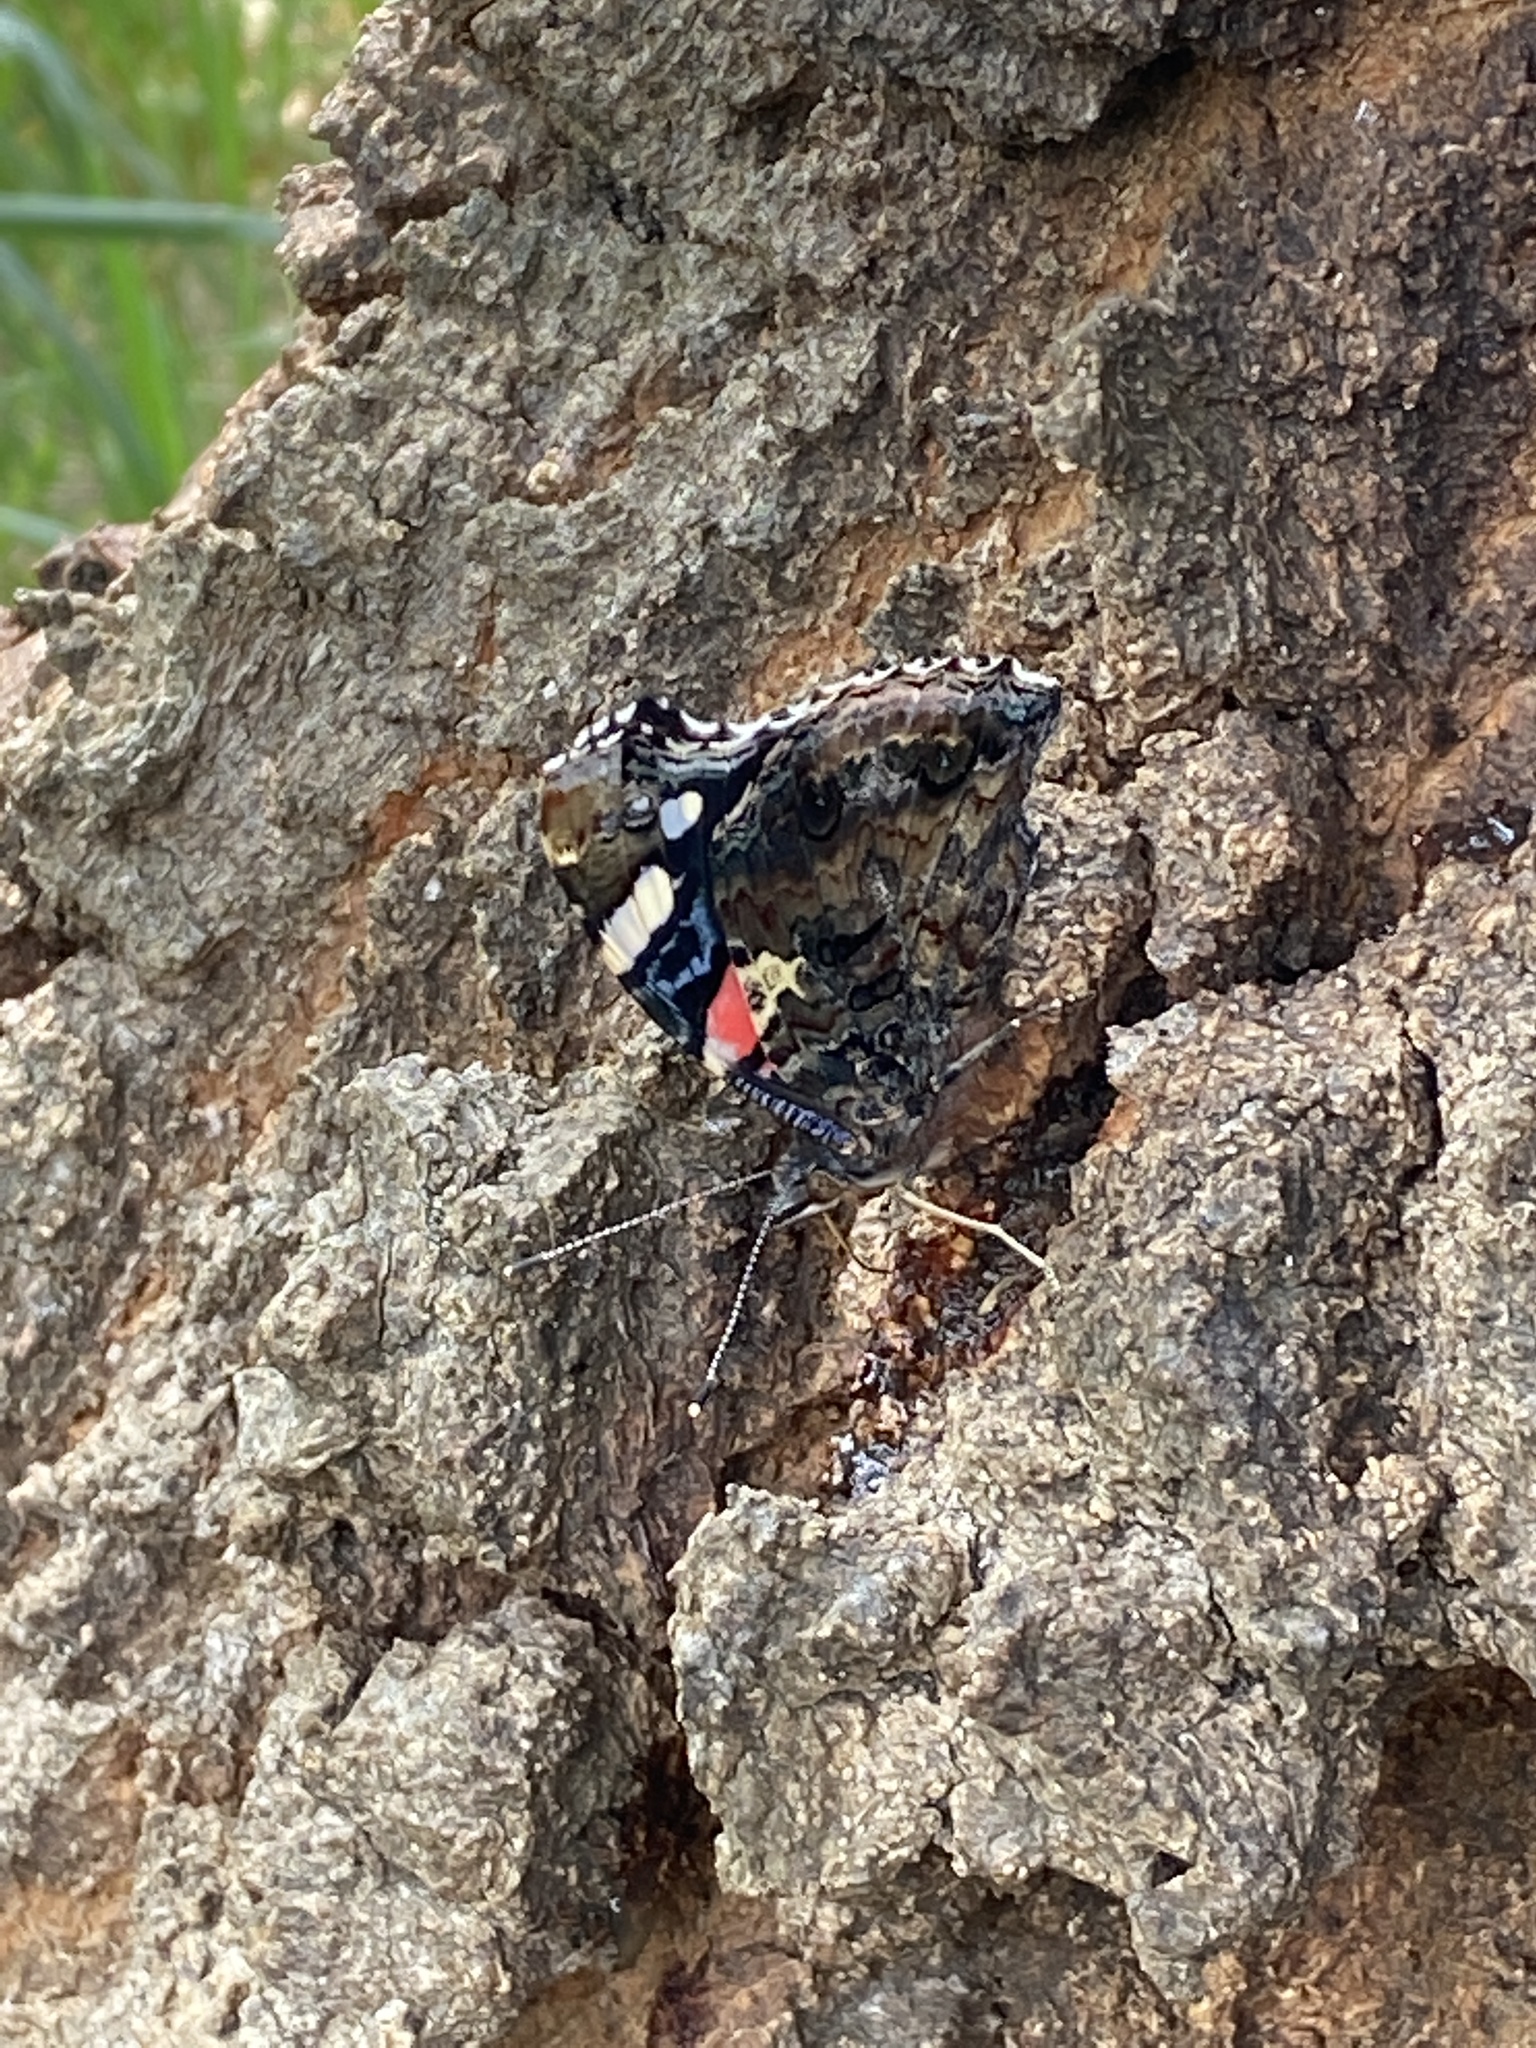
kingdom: Animalia
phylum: Arthropoda
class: Insecta
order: Lepidoptera
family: Nymphalidae
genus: Vanessa
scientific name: Vanessa atalanta
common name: Red admiral
